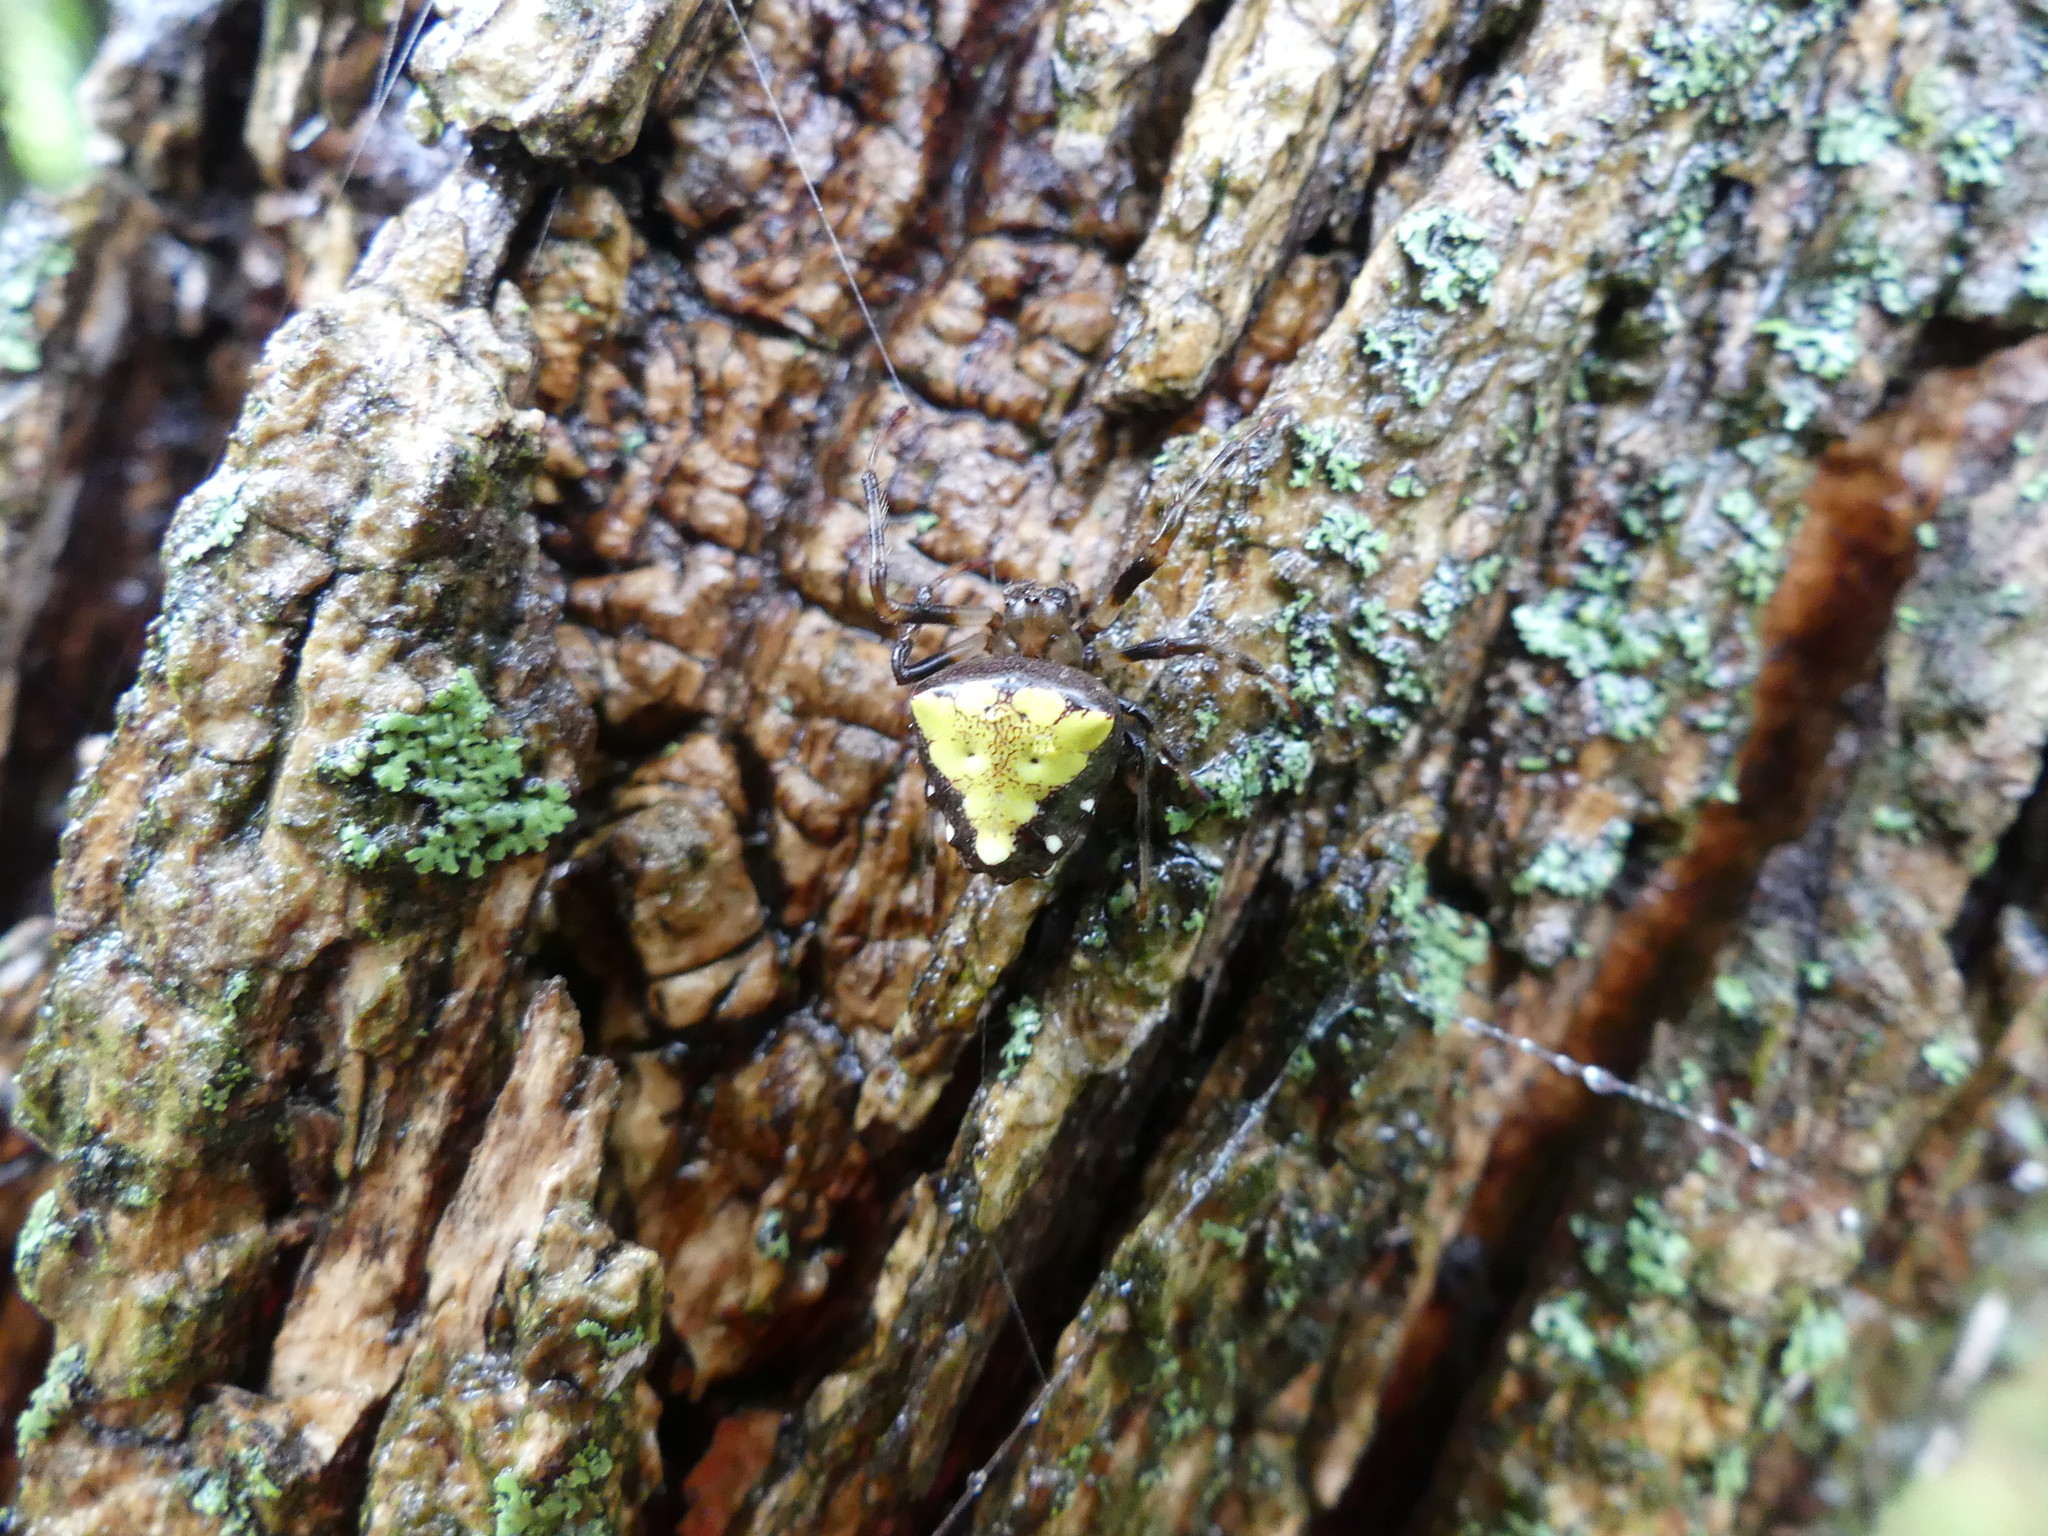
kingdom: Animalia
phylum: Arthropoda
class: Arachnida
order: Araneae
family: Araneidae
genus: Verrucosa
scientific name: Verrucosa arenata
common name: Orb weavers
